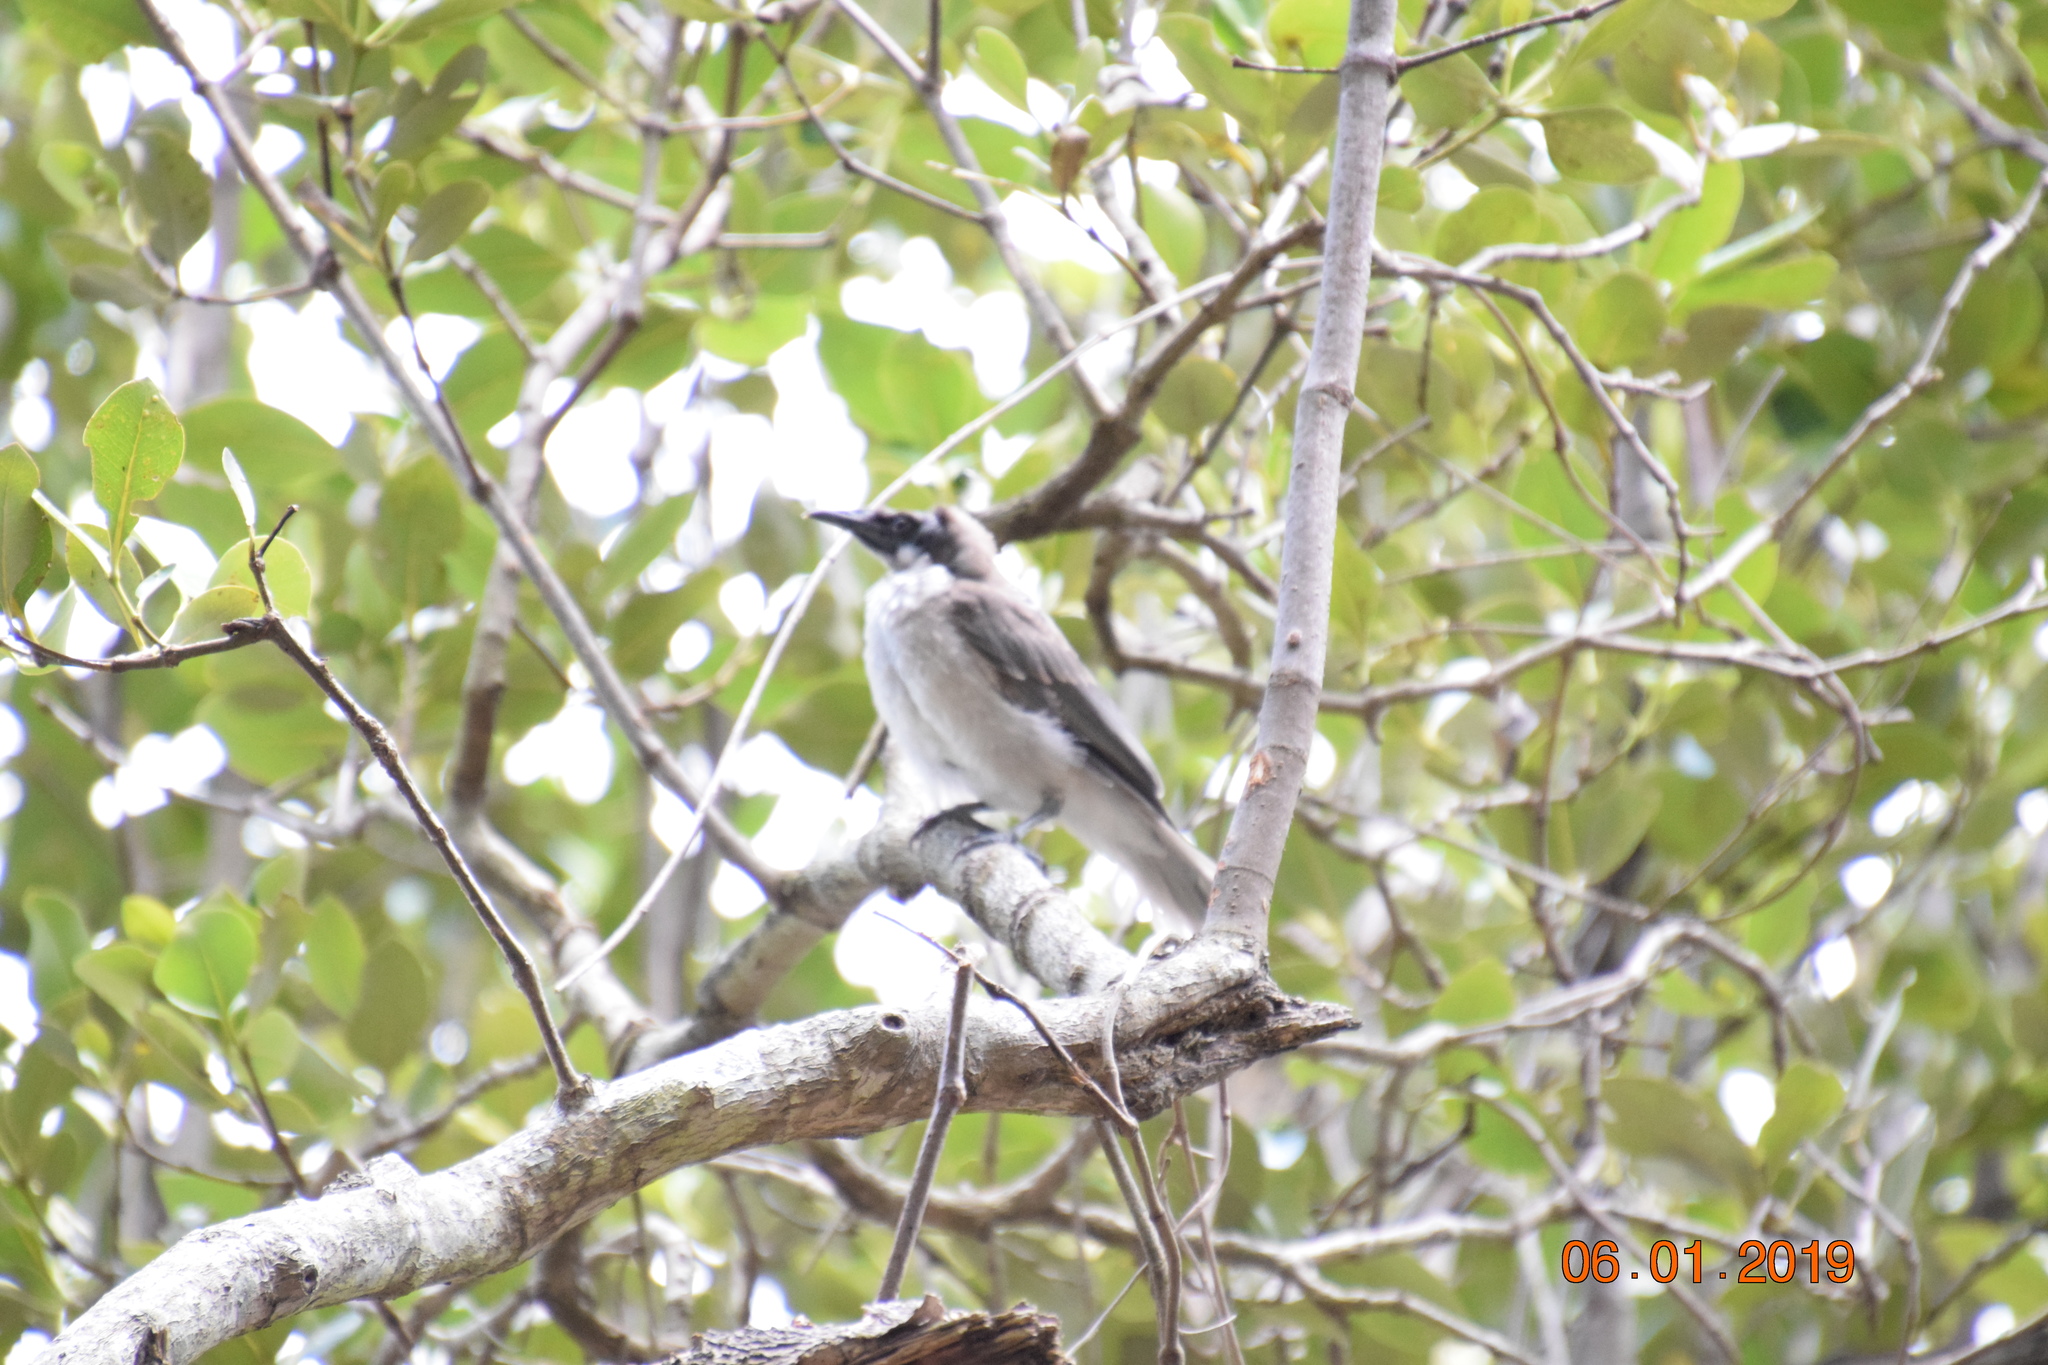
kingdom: Animalia
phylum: Chordata
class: Aves
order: Passeriformes
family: Meliphagidae
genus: Philemon
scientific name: Philemon corniculatus
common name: Noisy friarbird
